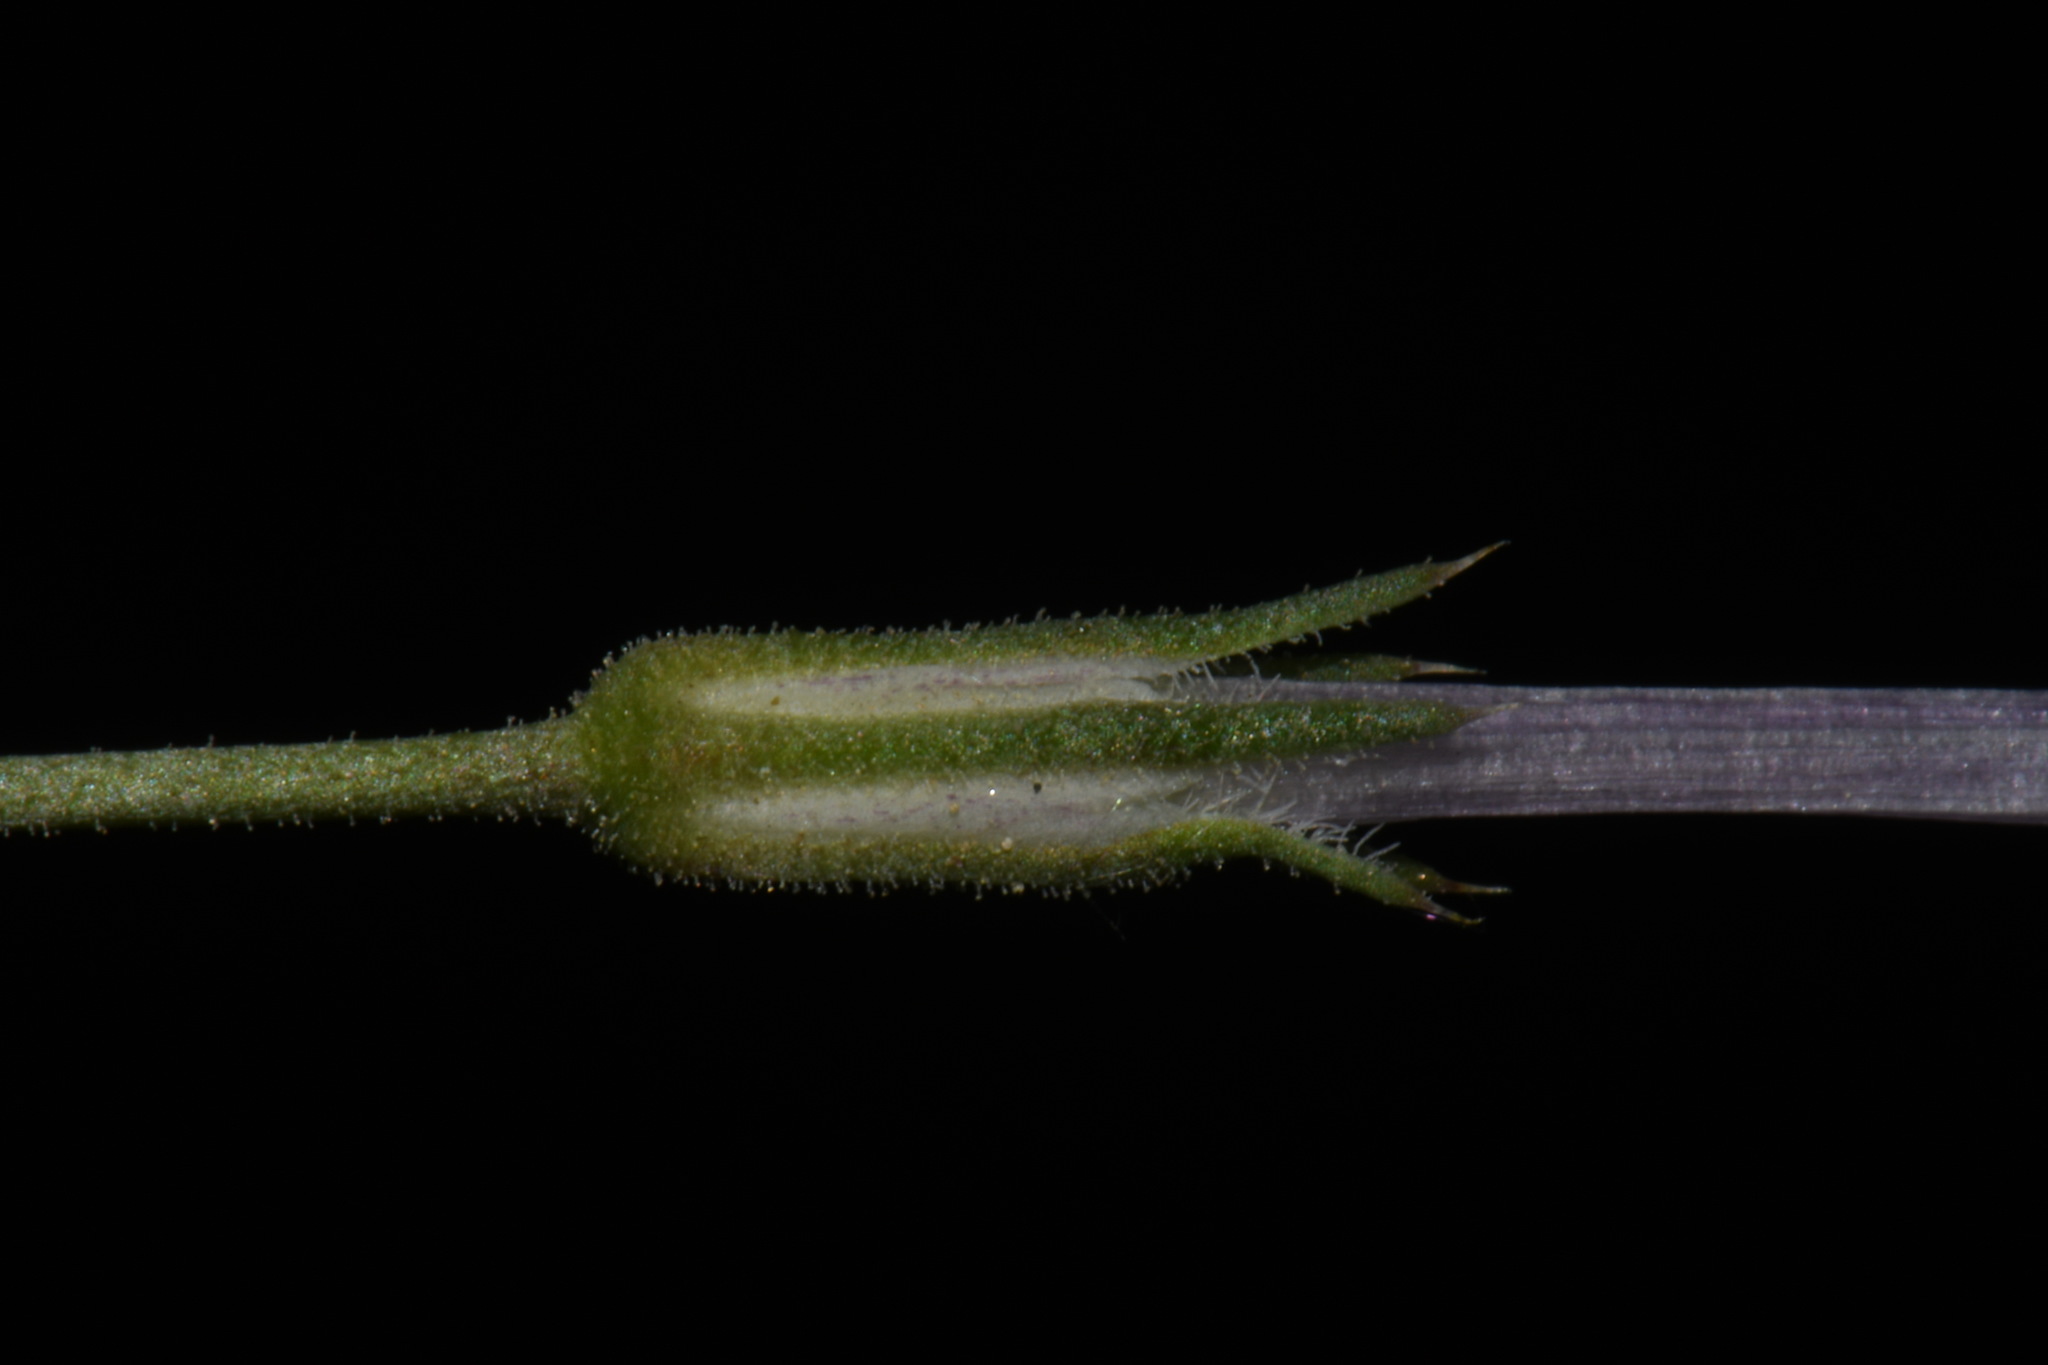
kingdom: Plantae
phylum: Tracheophyta
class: Magnoliopsida
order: Ericales
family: Polemoniaceae
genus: Ipomopsis
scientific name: Ipomopsis laxiflora
